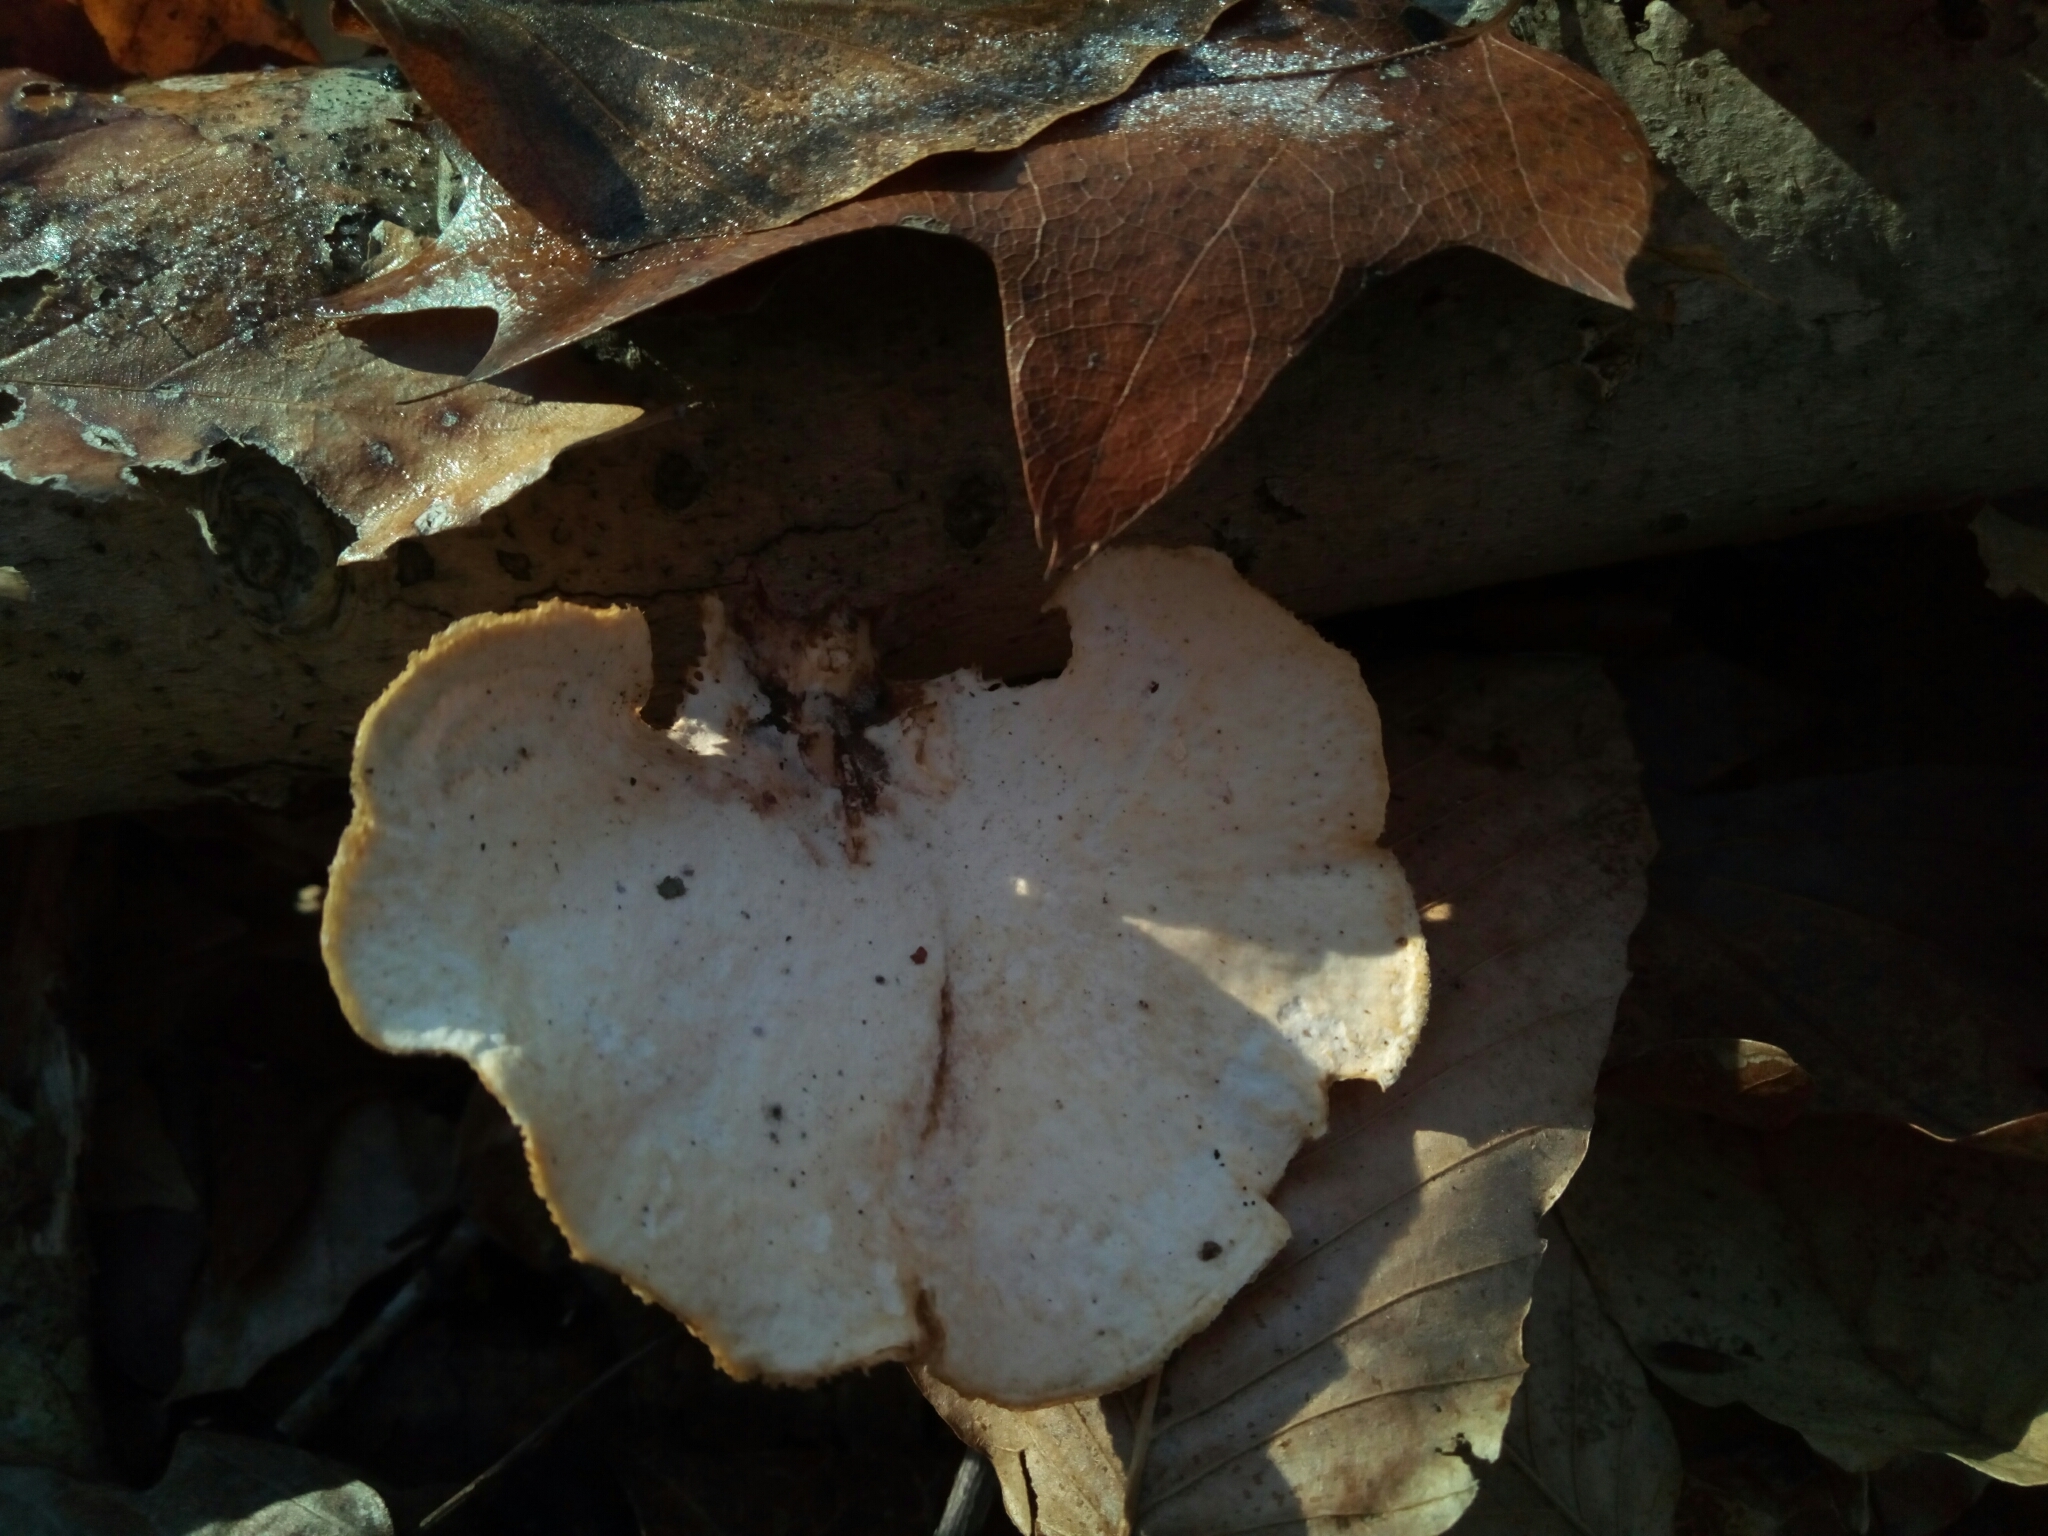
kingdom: Fungi
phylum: Basidiomycota
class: Agaricomycetes
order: Polyporales
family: Polyporaceae
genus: Neofavolus
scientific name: Neofavolus alveolaris
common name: Hexagonal-pored polypore
